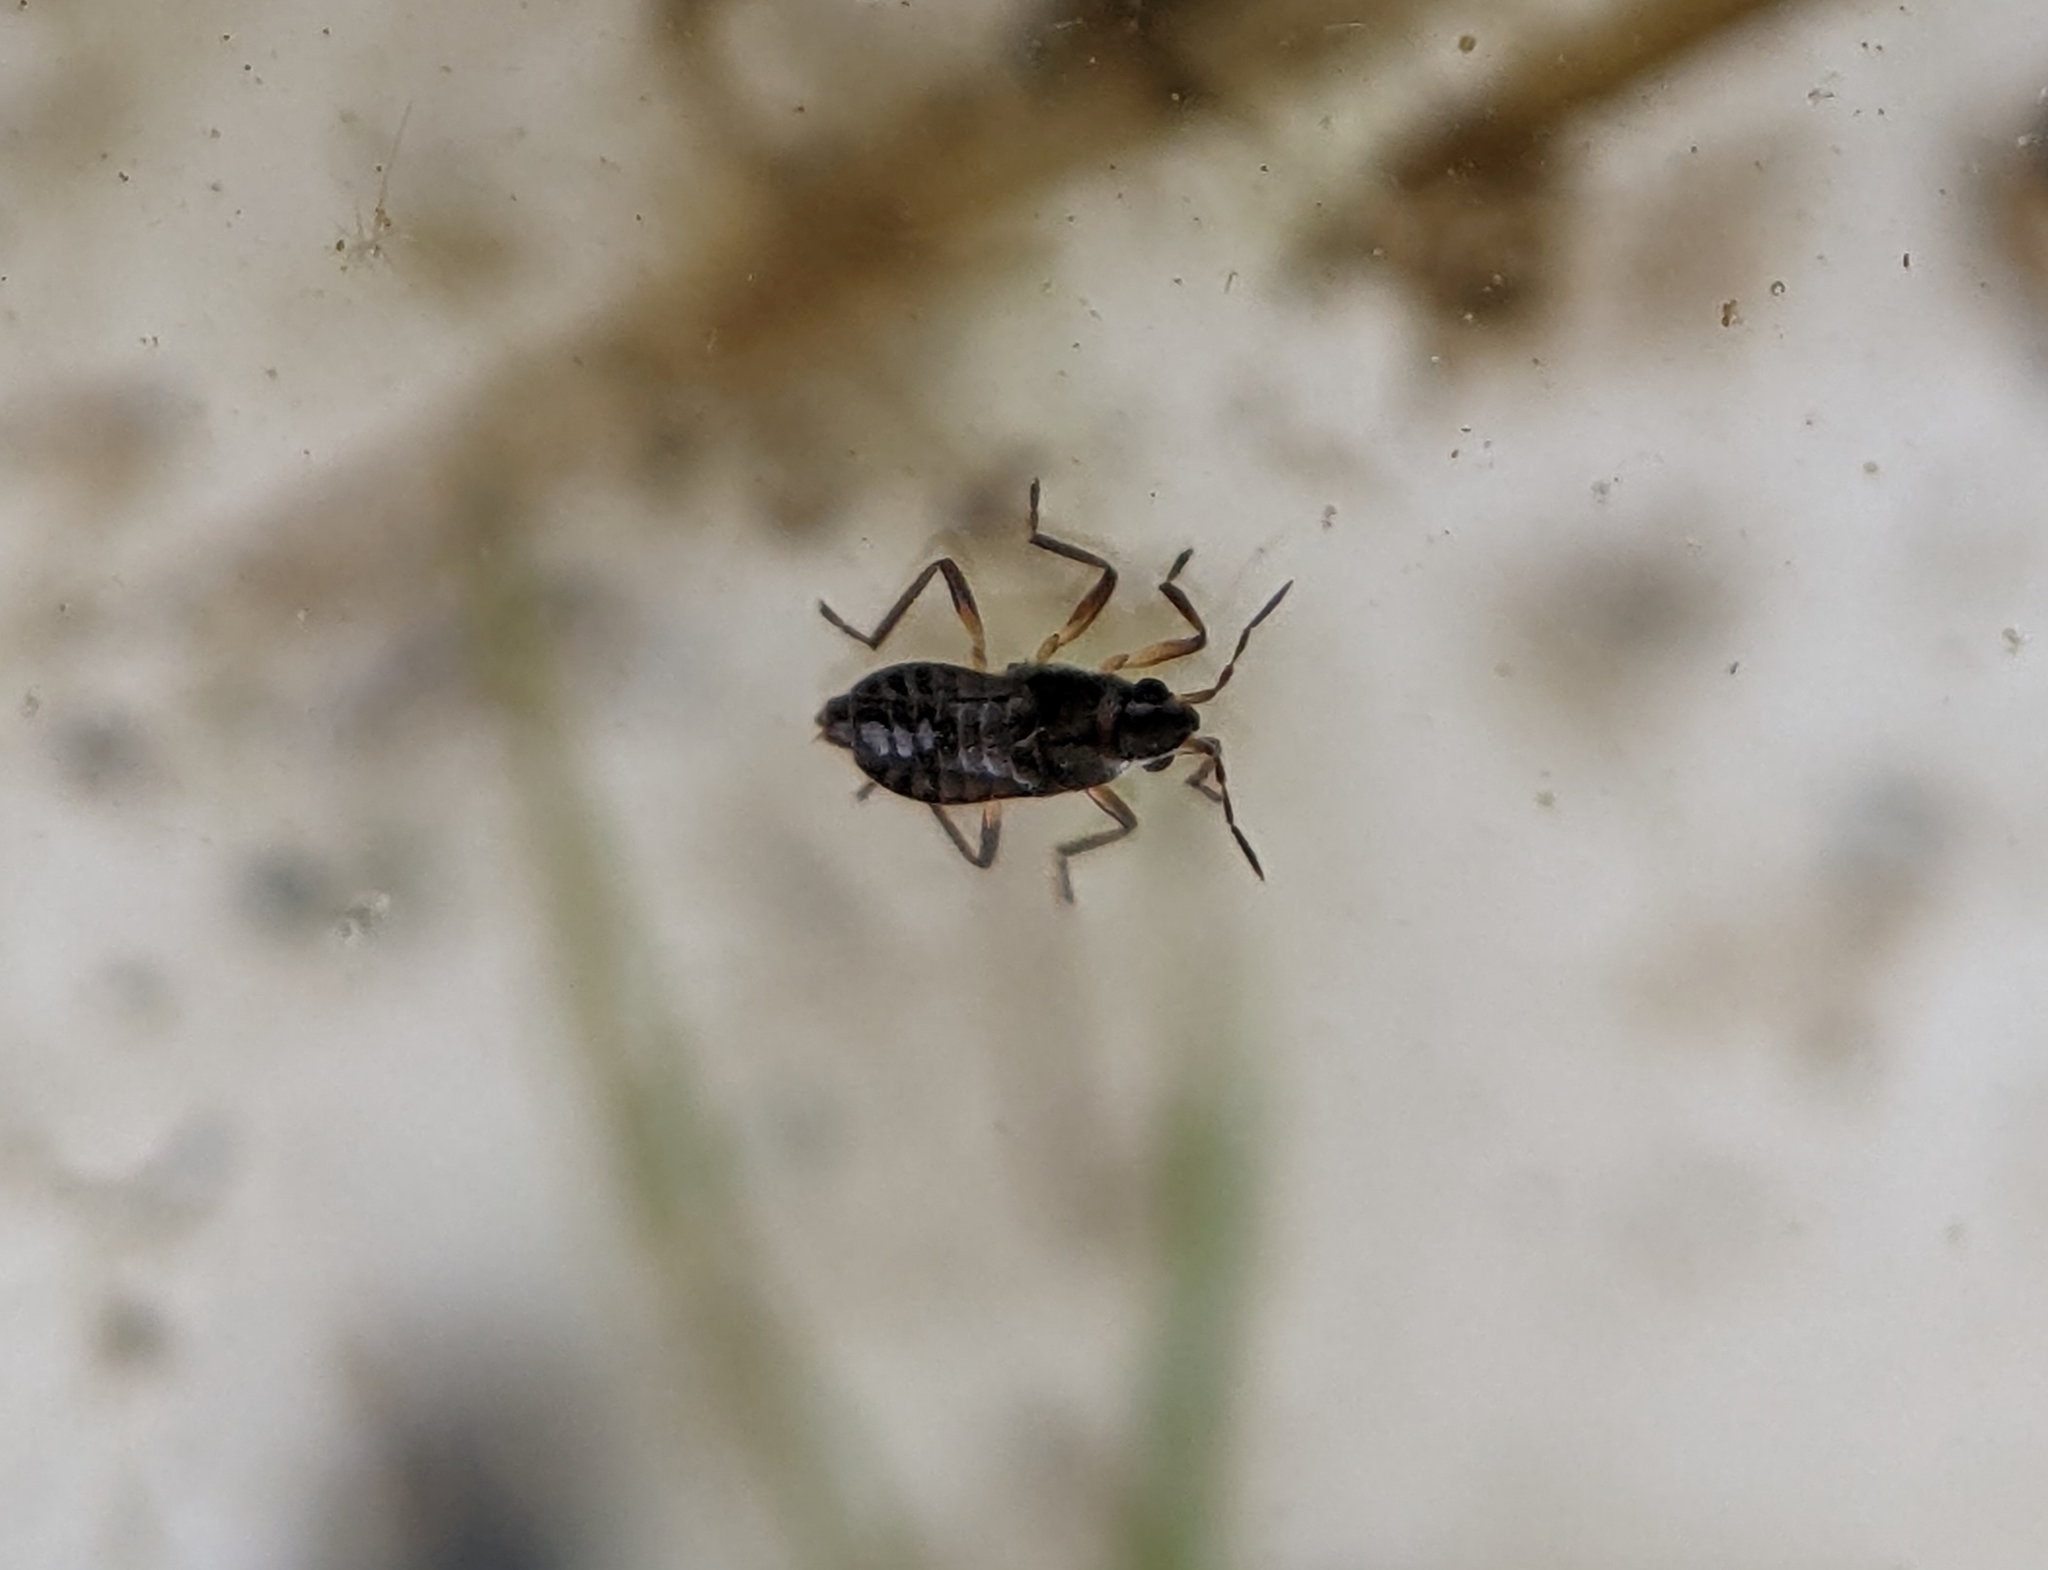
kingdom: Animalia
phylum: Arthropoda
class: Insecta
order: Hemiptera
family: Veliidae
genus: Microvelia
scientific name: Microvelia
